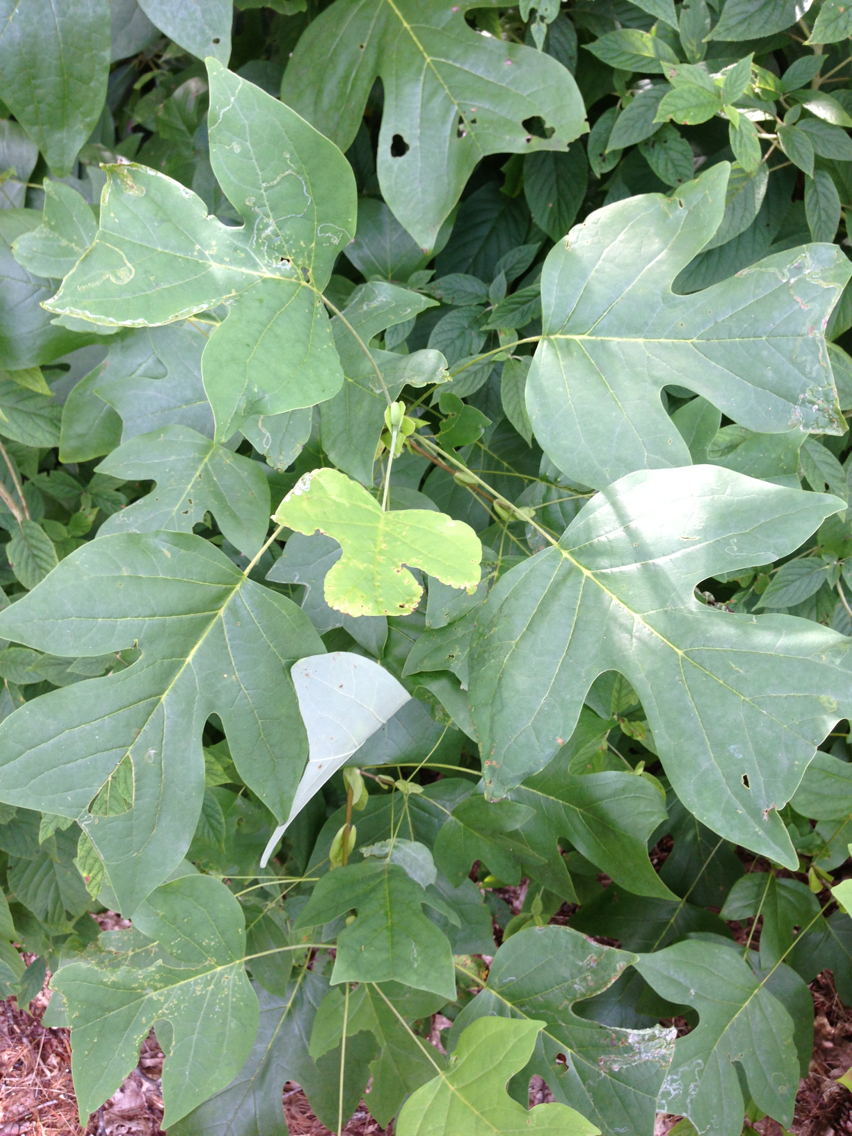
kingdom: Plantae
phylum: Tracheophyta
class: Magnoliopsida
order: Magnoliales
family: Magnoliaceae
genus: Liriodendron
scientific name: Liriodendron tulipifera
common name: Tulip tree
